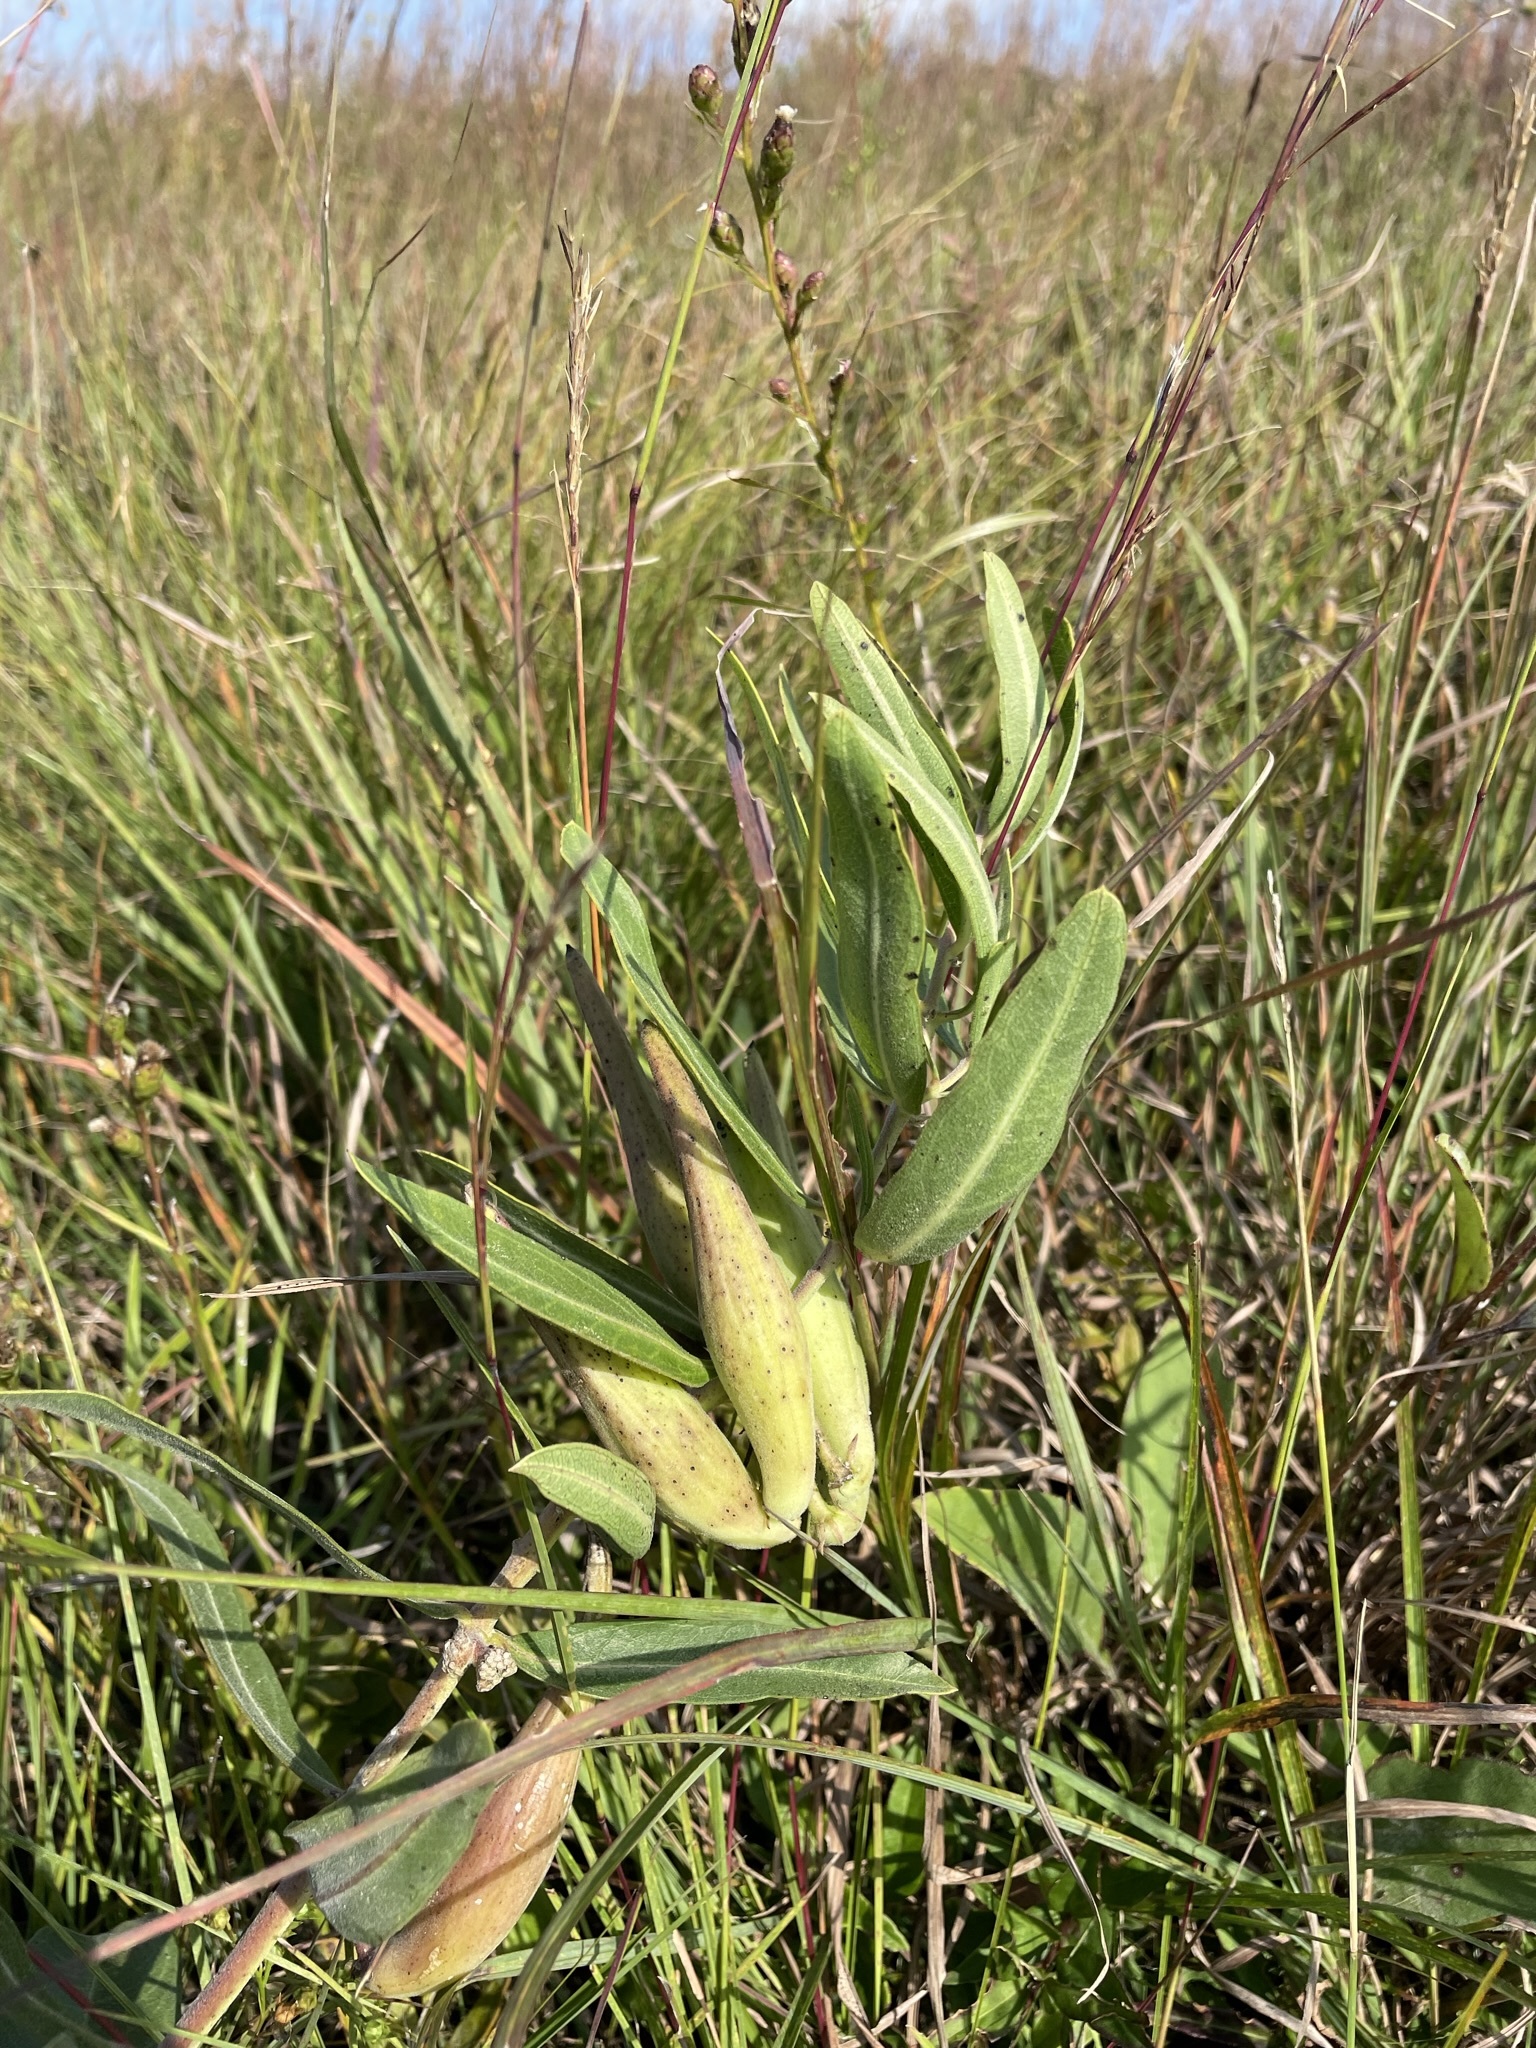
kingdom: Plantae
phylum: Tracheophyta
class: Magnoliopsida
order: Gentianales
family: Apocynaceae
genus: Asclepias
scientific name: Asclepias viridiflora
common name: Green comet milkweed
